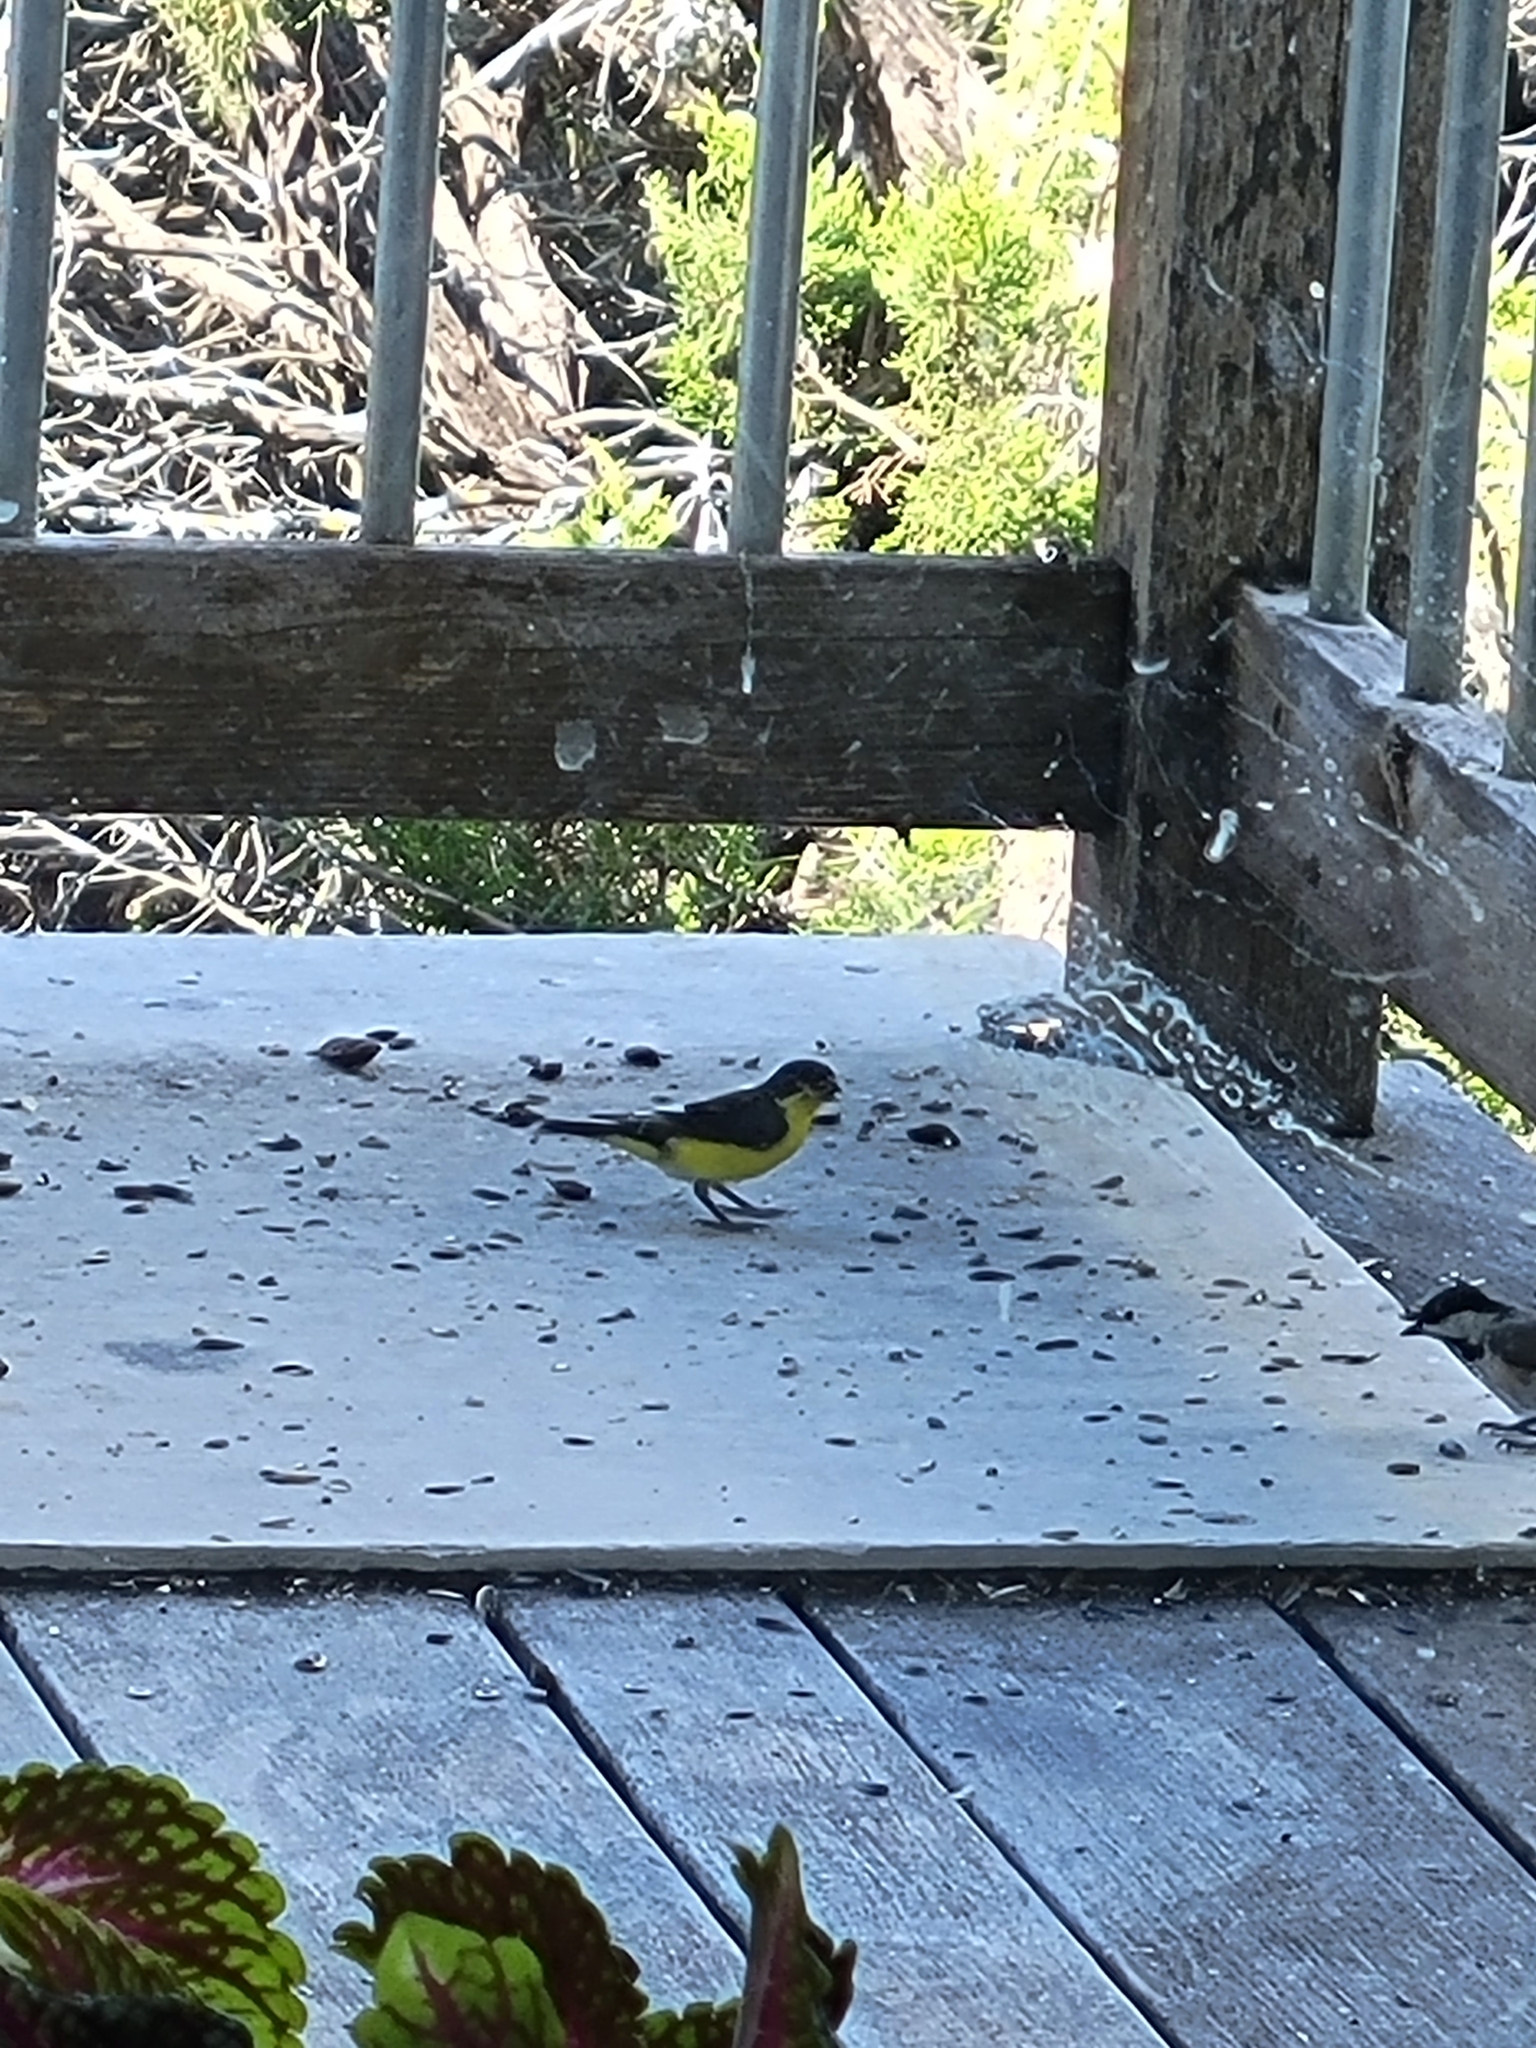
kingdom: Animalia
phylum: Chordata
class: Aves
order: Passeriformes
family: Fringillidae
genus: Spinus
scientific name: Spinus psaltria
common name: Lesser goldfinch
